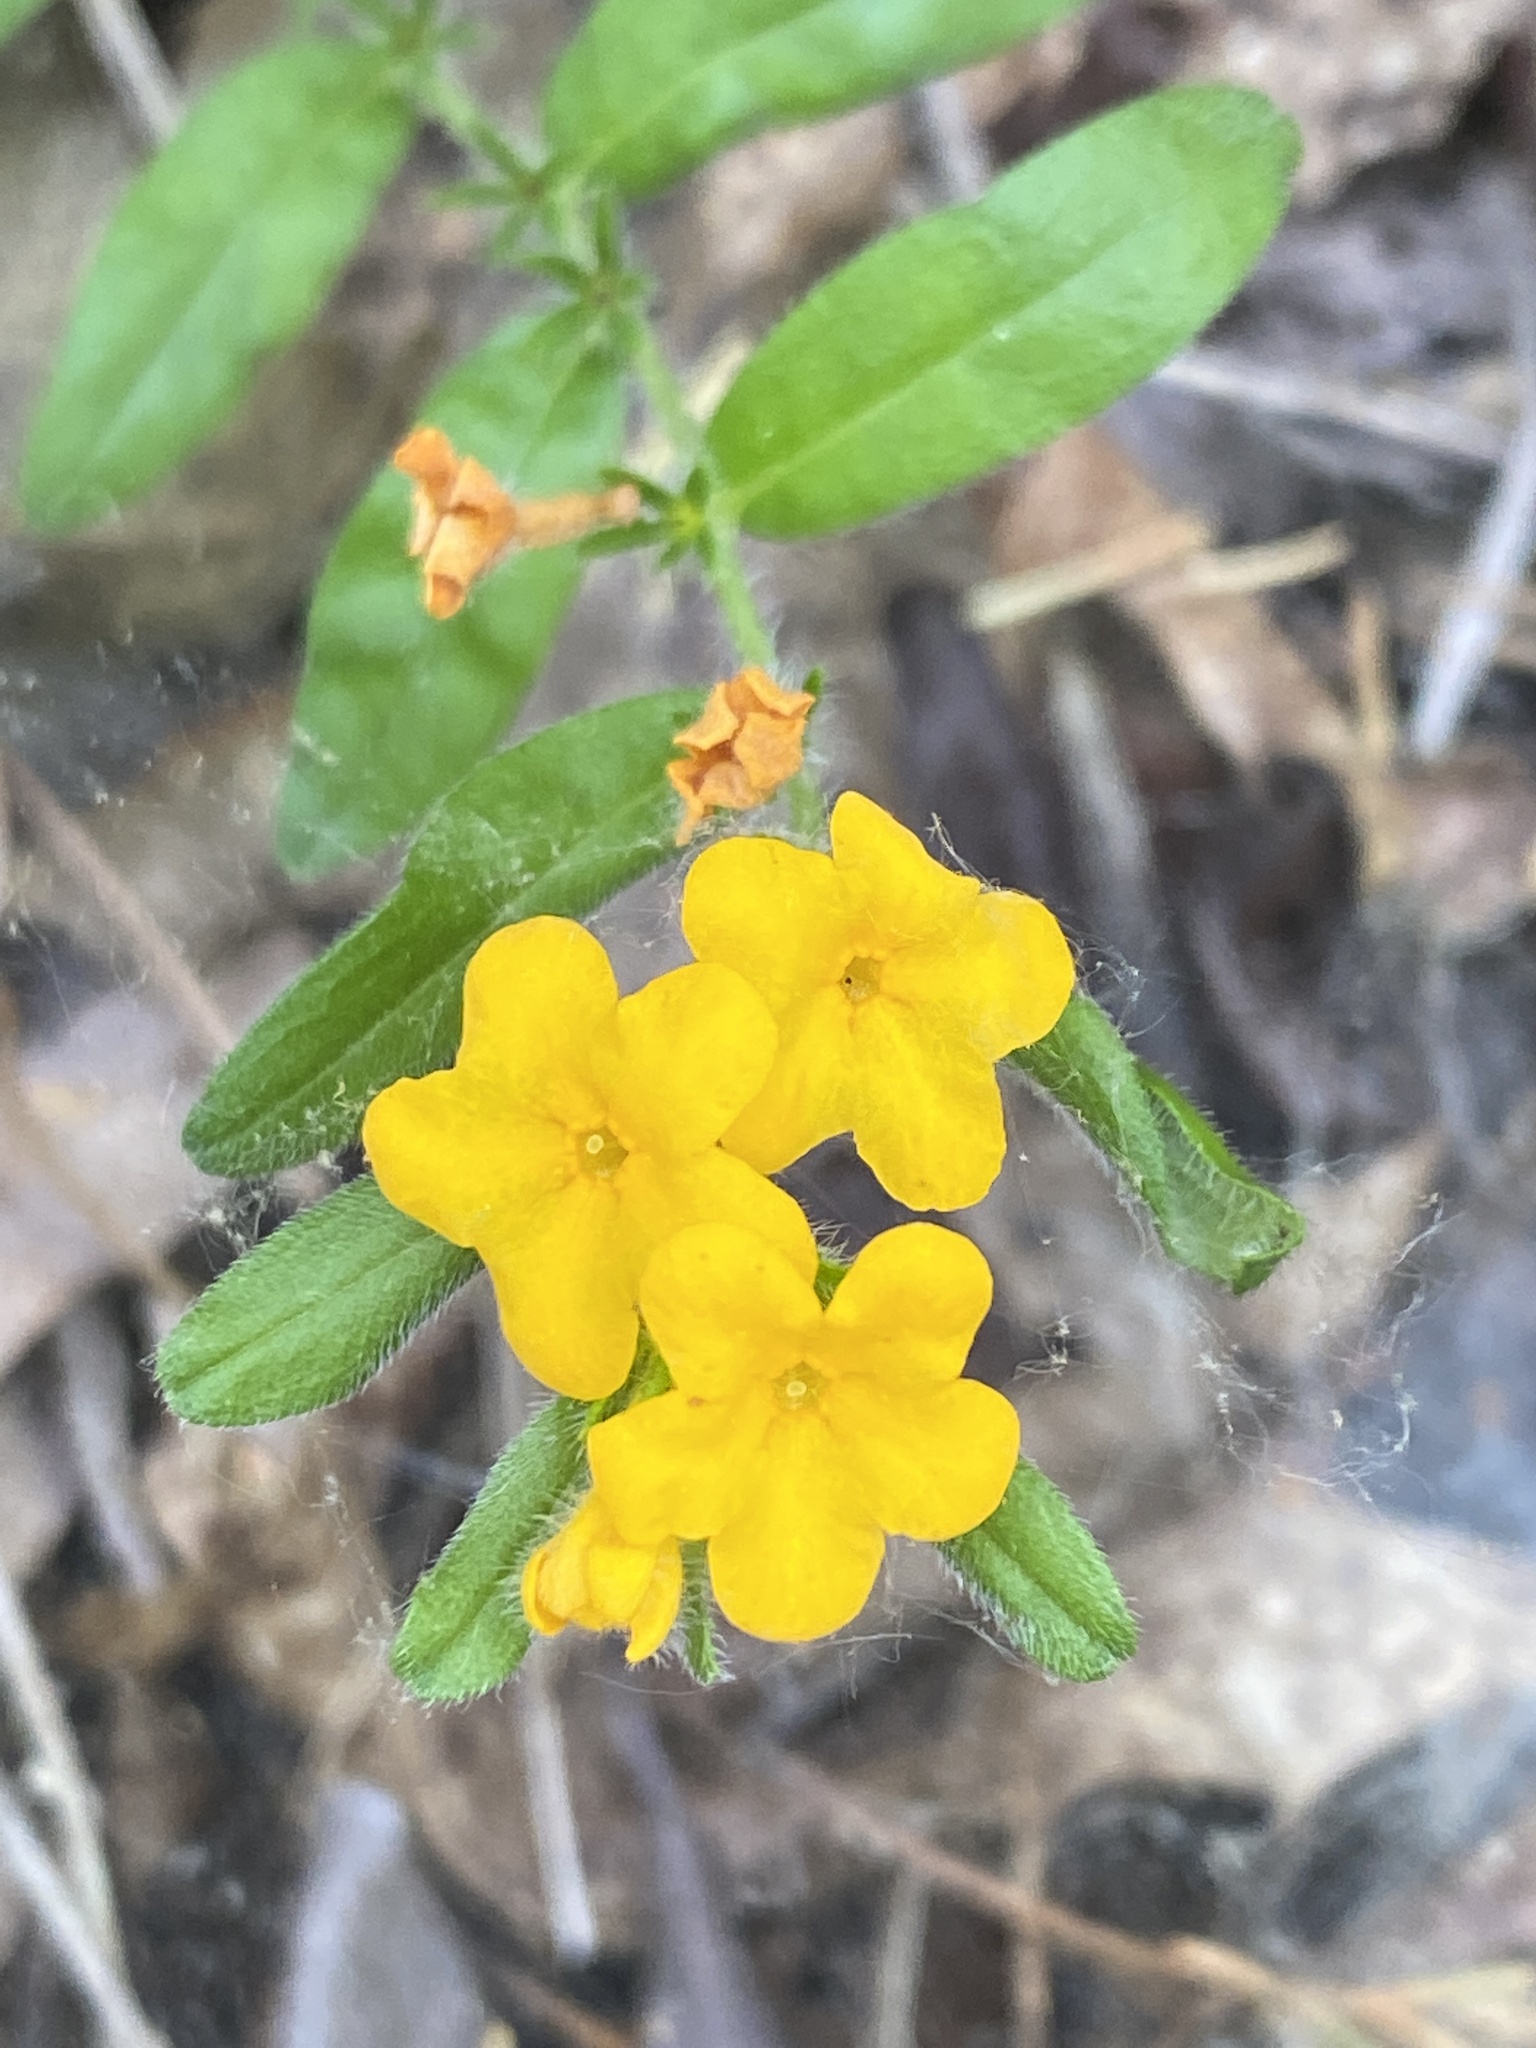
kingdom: Plantae
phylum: Tracheophyta
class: Magnoliopsida
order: Boraginales
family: Boraginaceae
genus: Lithospermum
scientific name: Lithospermum canescens
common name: Hoary puccoon
